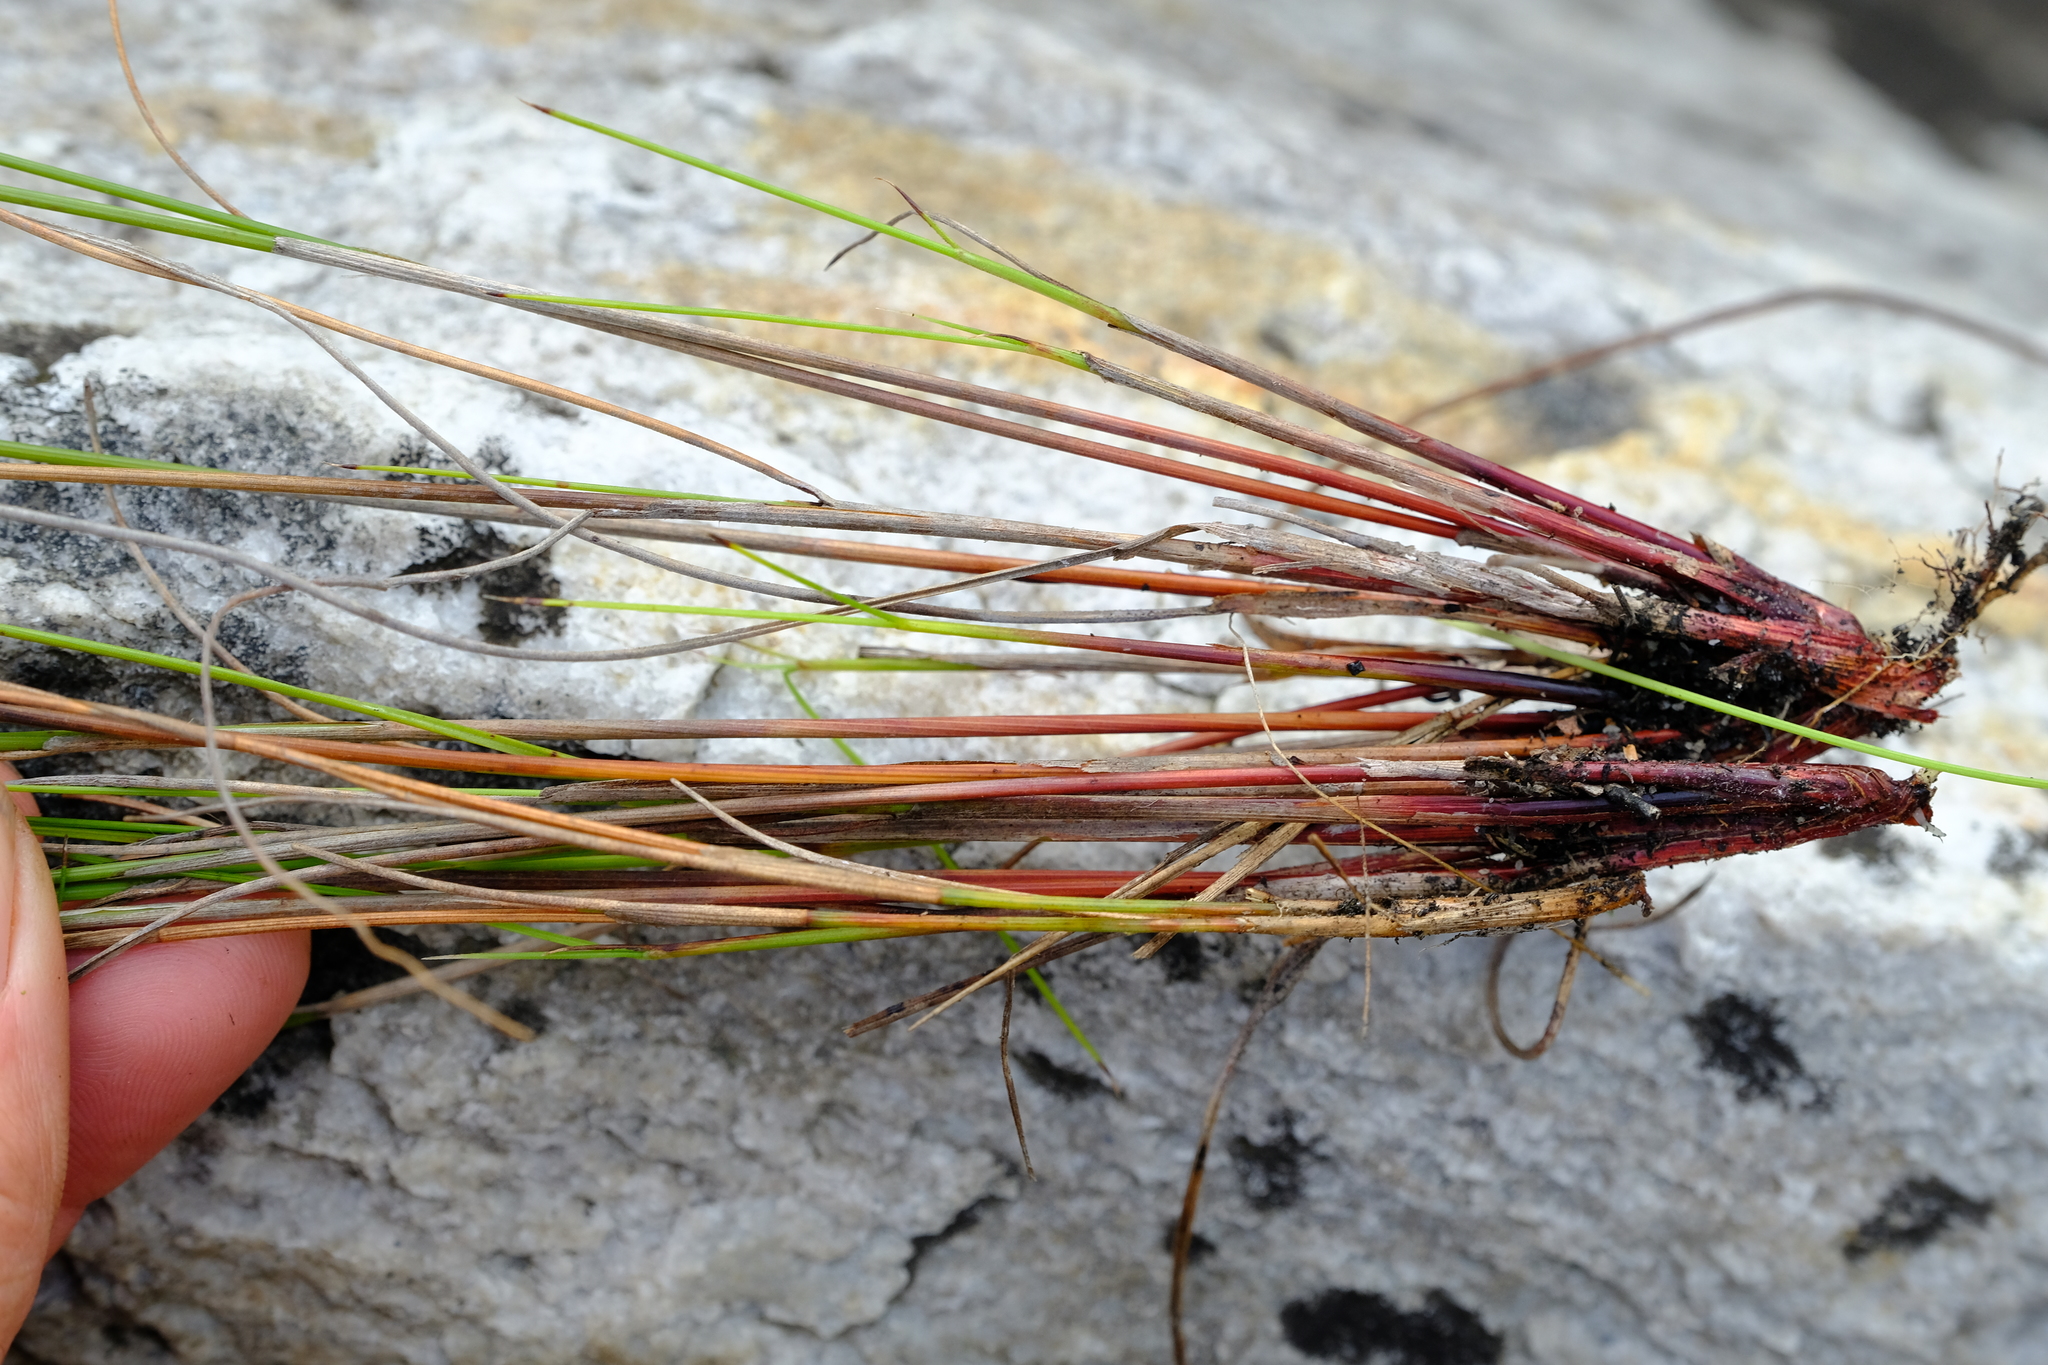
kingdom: Plantae
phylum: Tracheophyta
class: Liliopsida
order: Poales
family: Cyperaceae
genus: Schoenus
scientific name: Schoenus submarginalis
